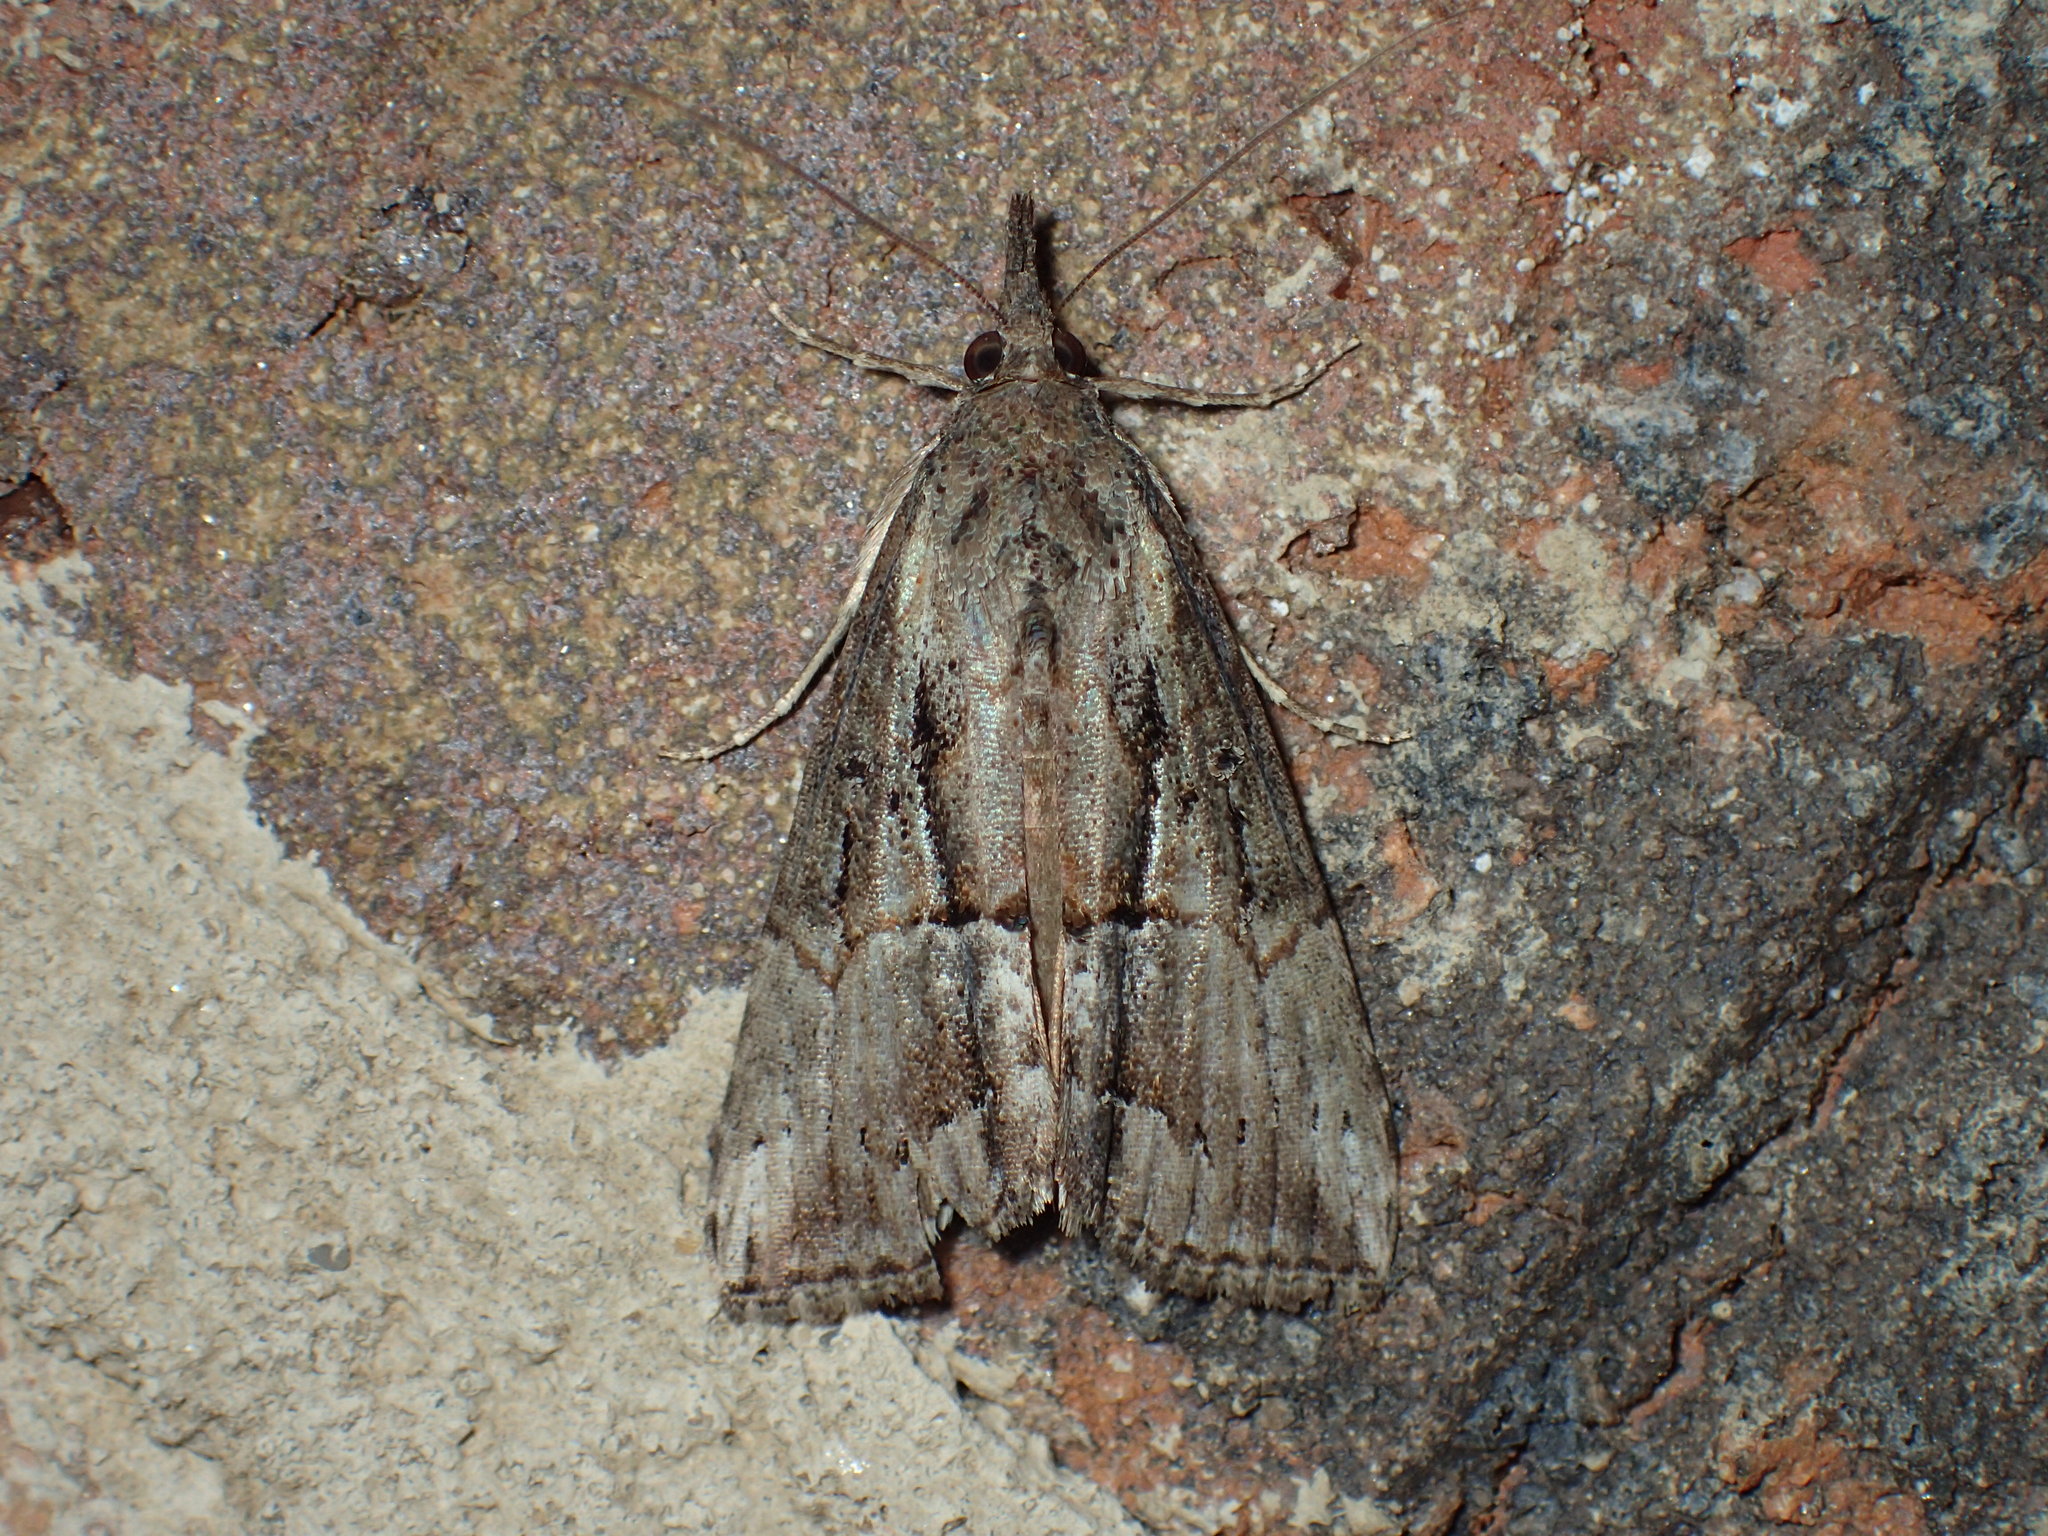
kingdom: Animalia
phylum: Arthropoda
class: Insecta
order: Lepidoptera
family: Erebidae
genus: Hypena
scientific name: Hypena scabra
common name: Green cloverworm
